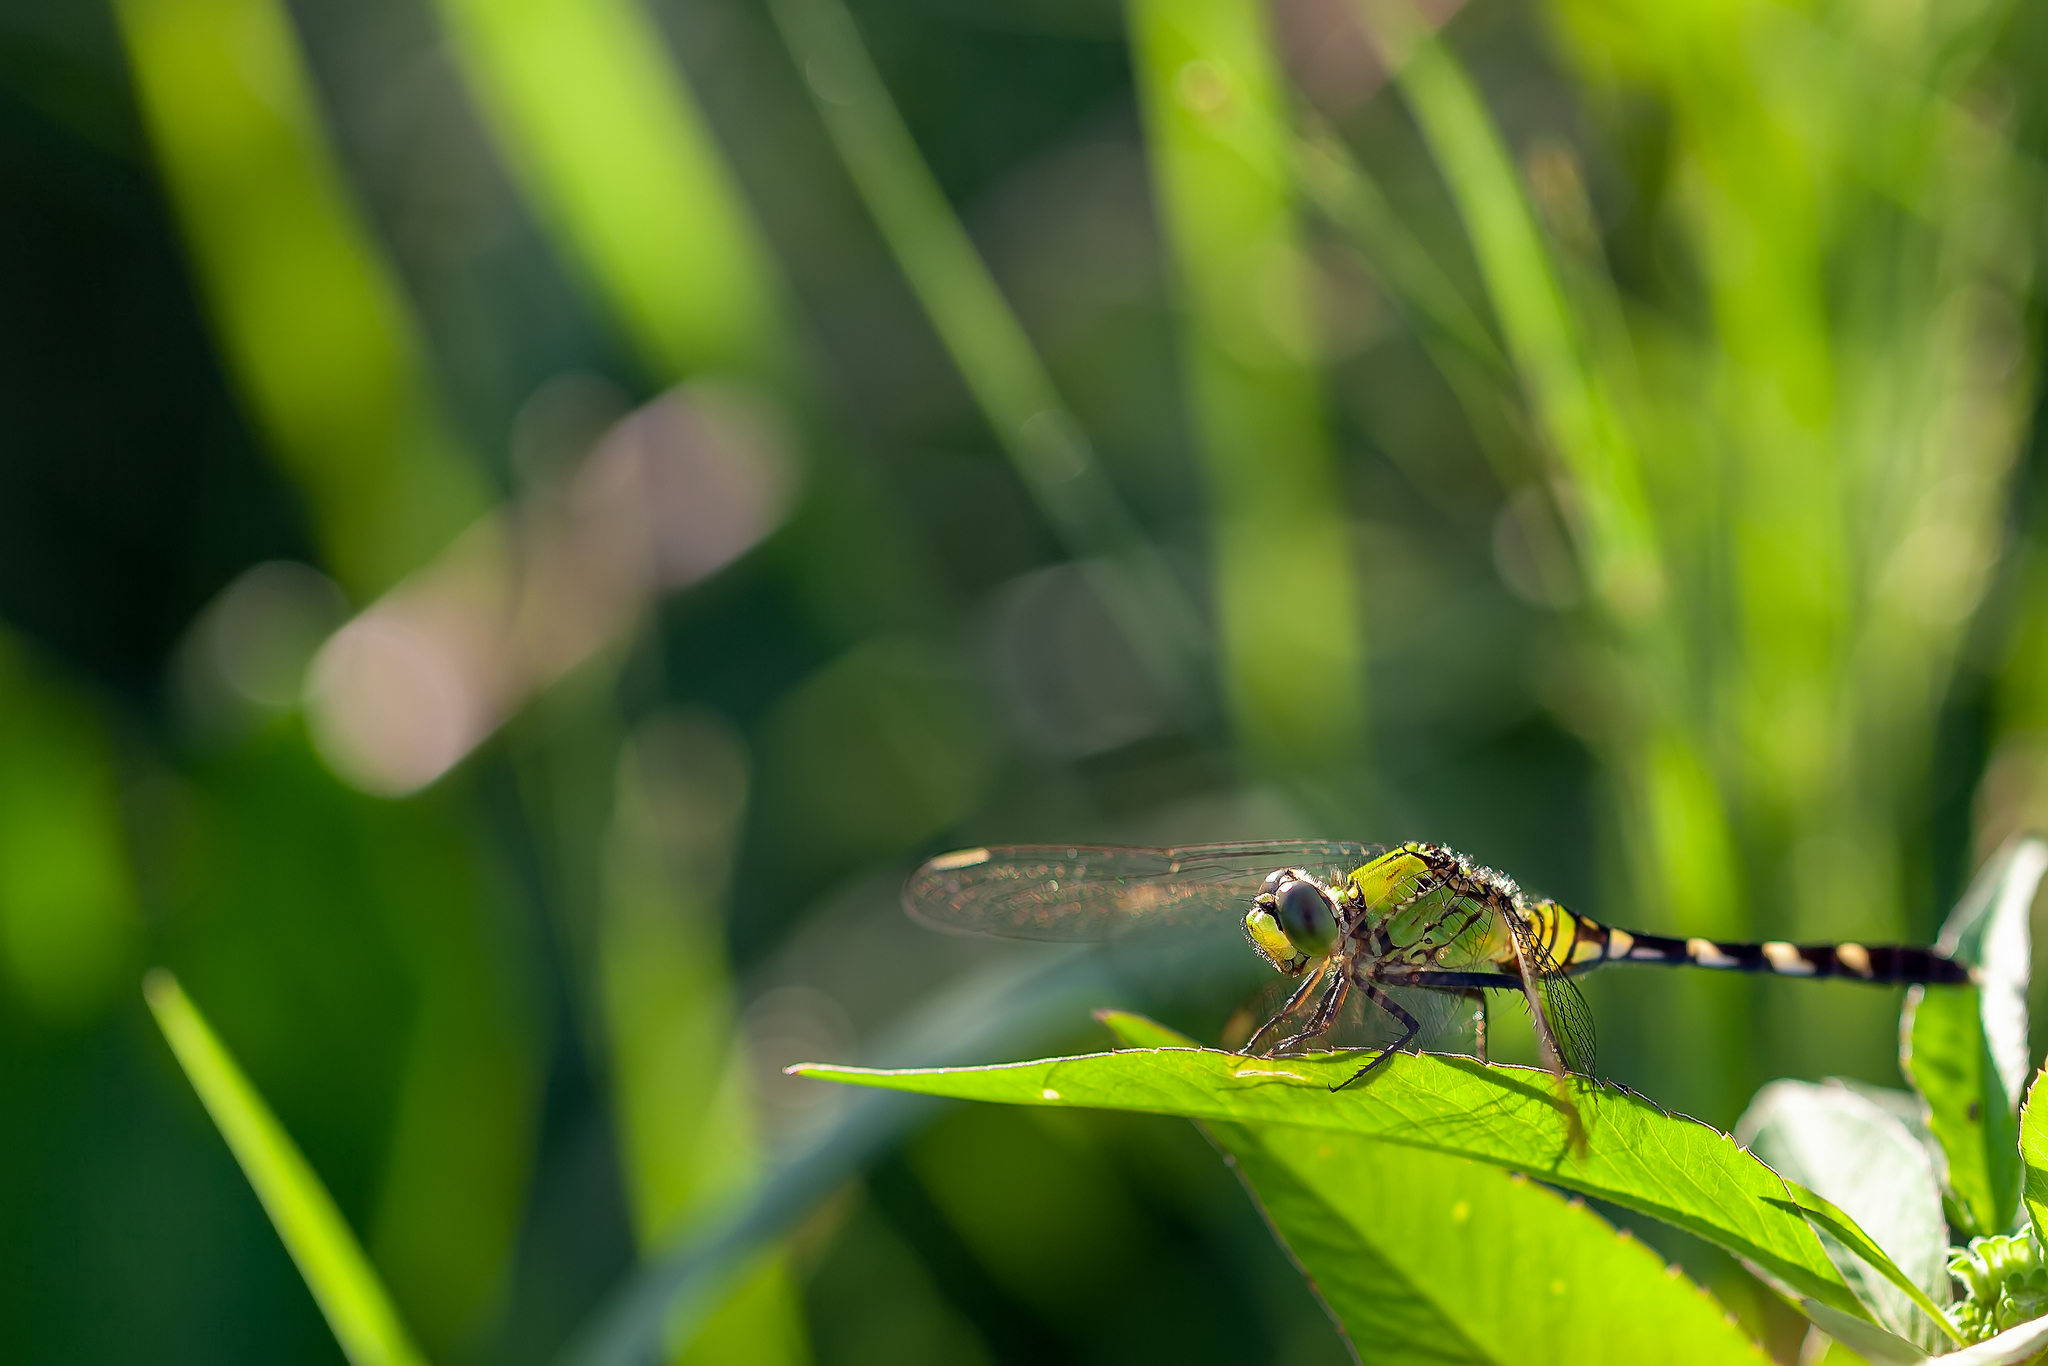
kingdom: Animalia
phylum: Arthropoda
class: Insecta
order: Odonata
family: Libellulidae
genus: Erythemis
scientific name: Erythemis simplicicollis
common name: Eastern pondhawk
